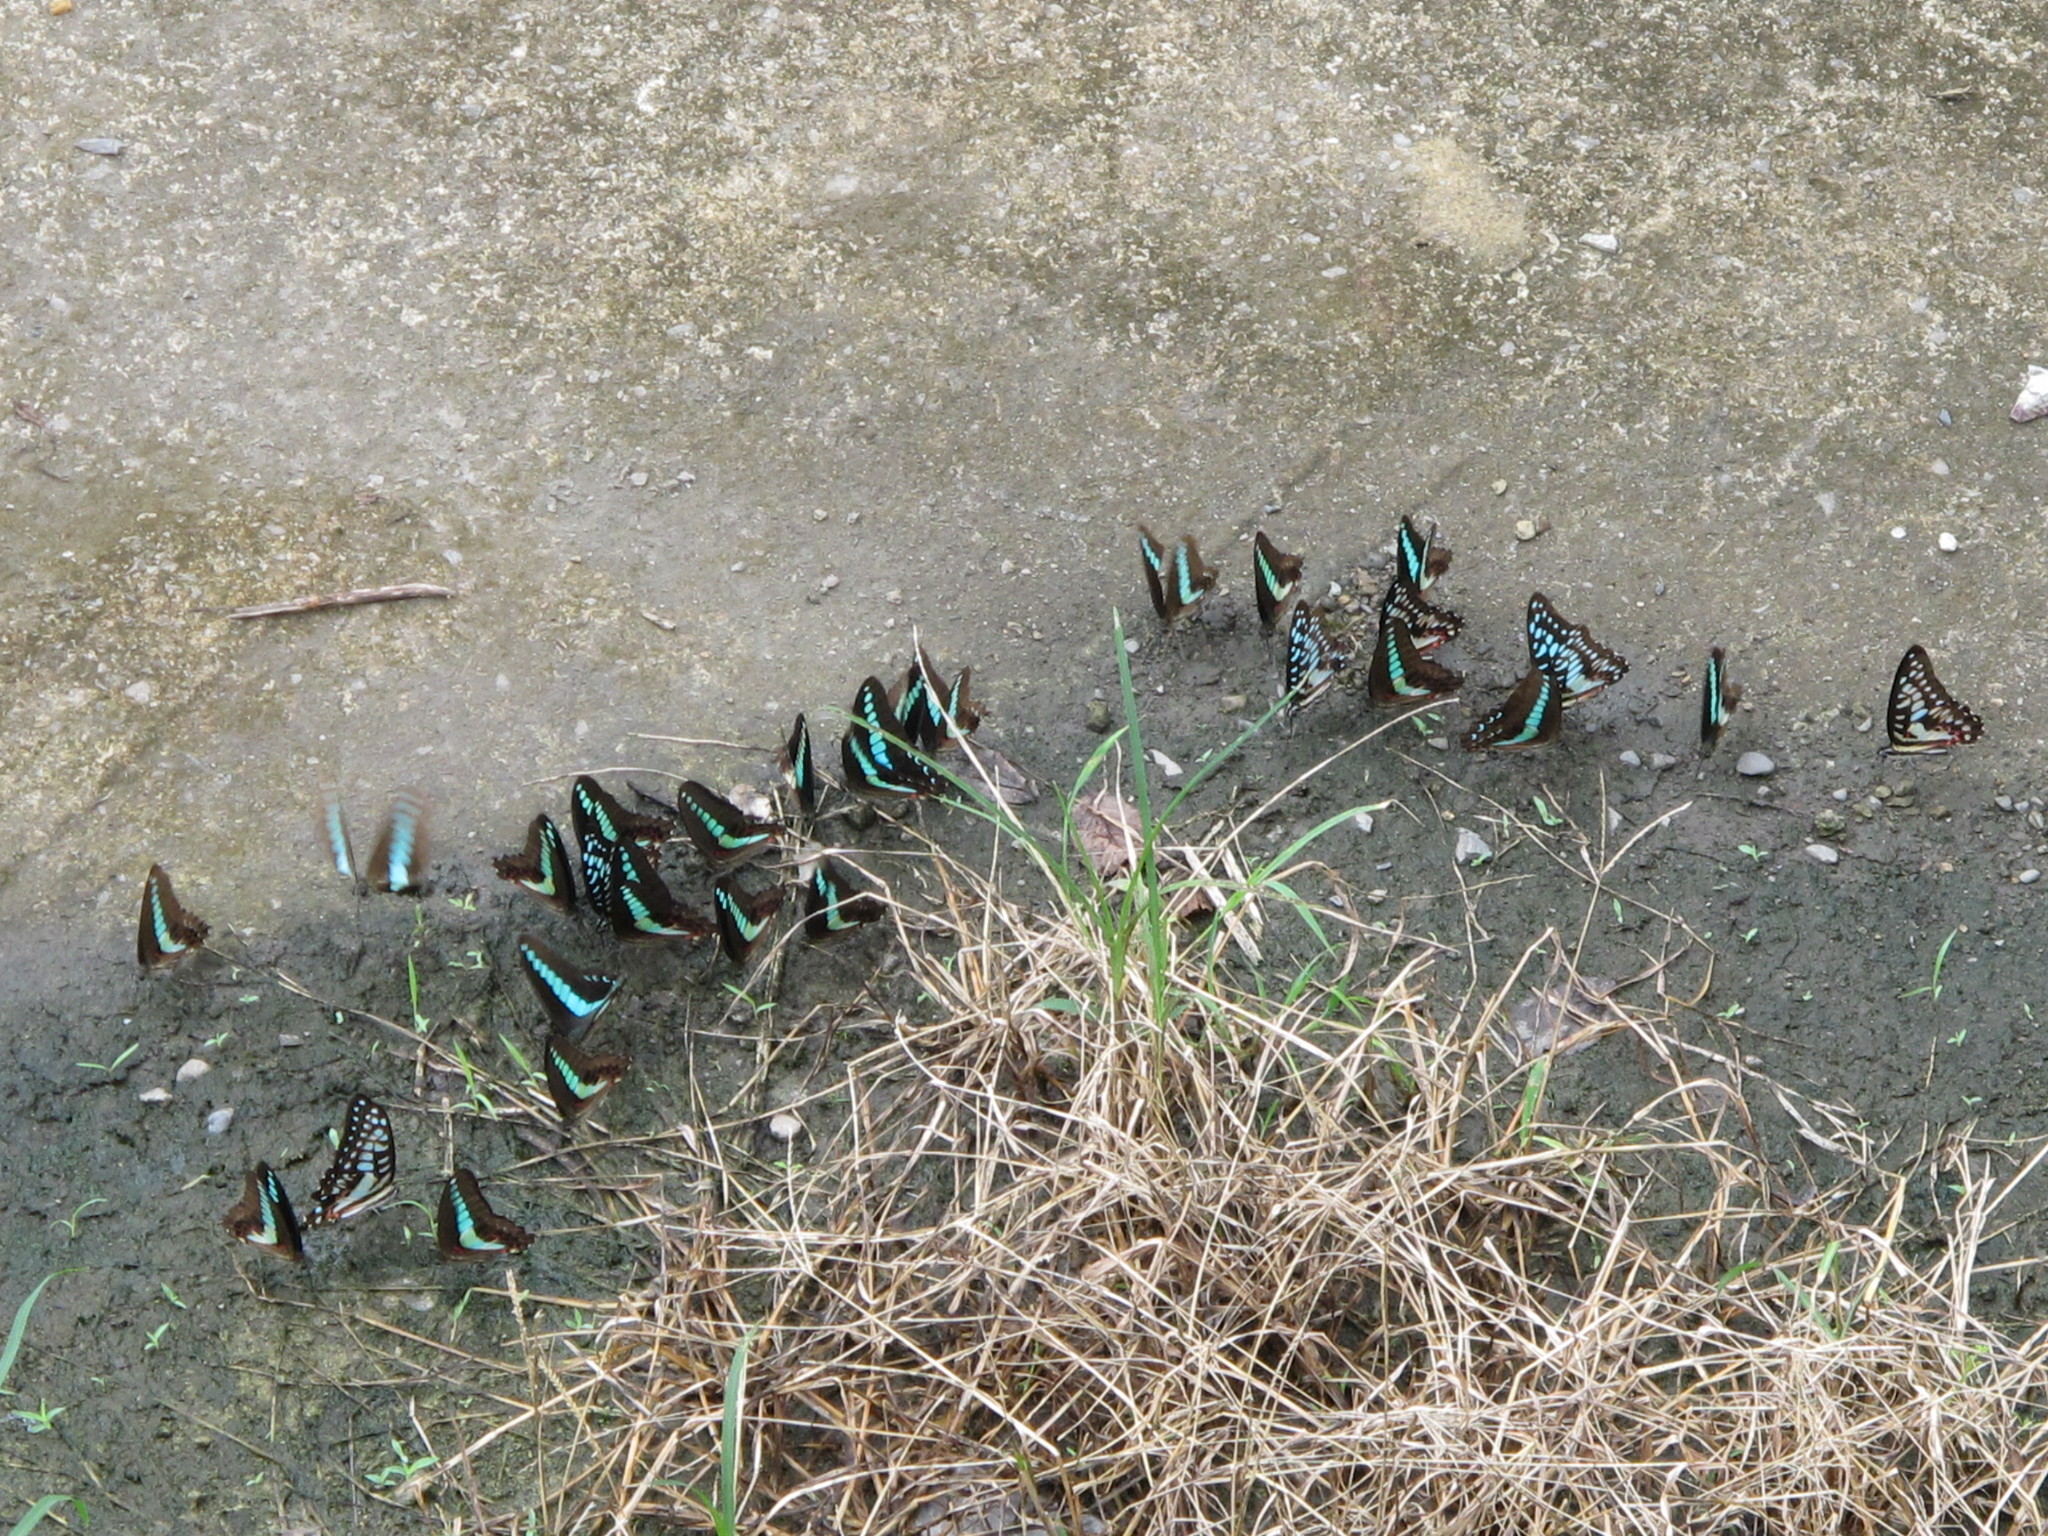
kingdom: Animalia
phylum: Arthropoda
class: Insecta
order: Lepidoptera
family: Papilionidae
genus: Graphium
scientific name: Graphium doson
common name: Common jay
